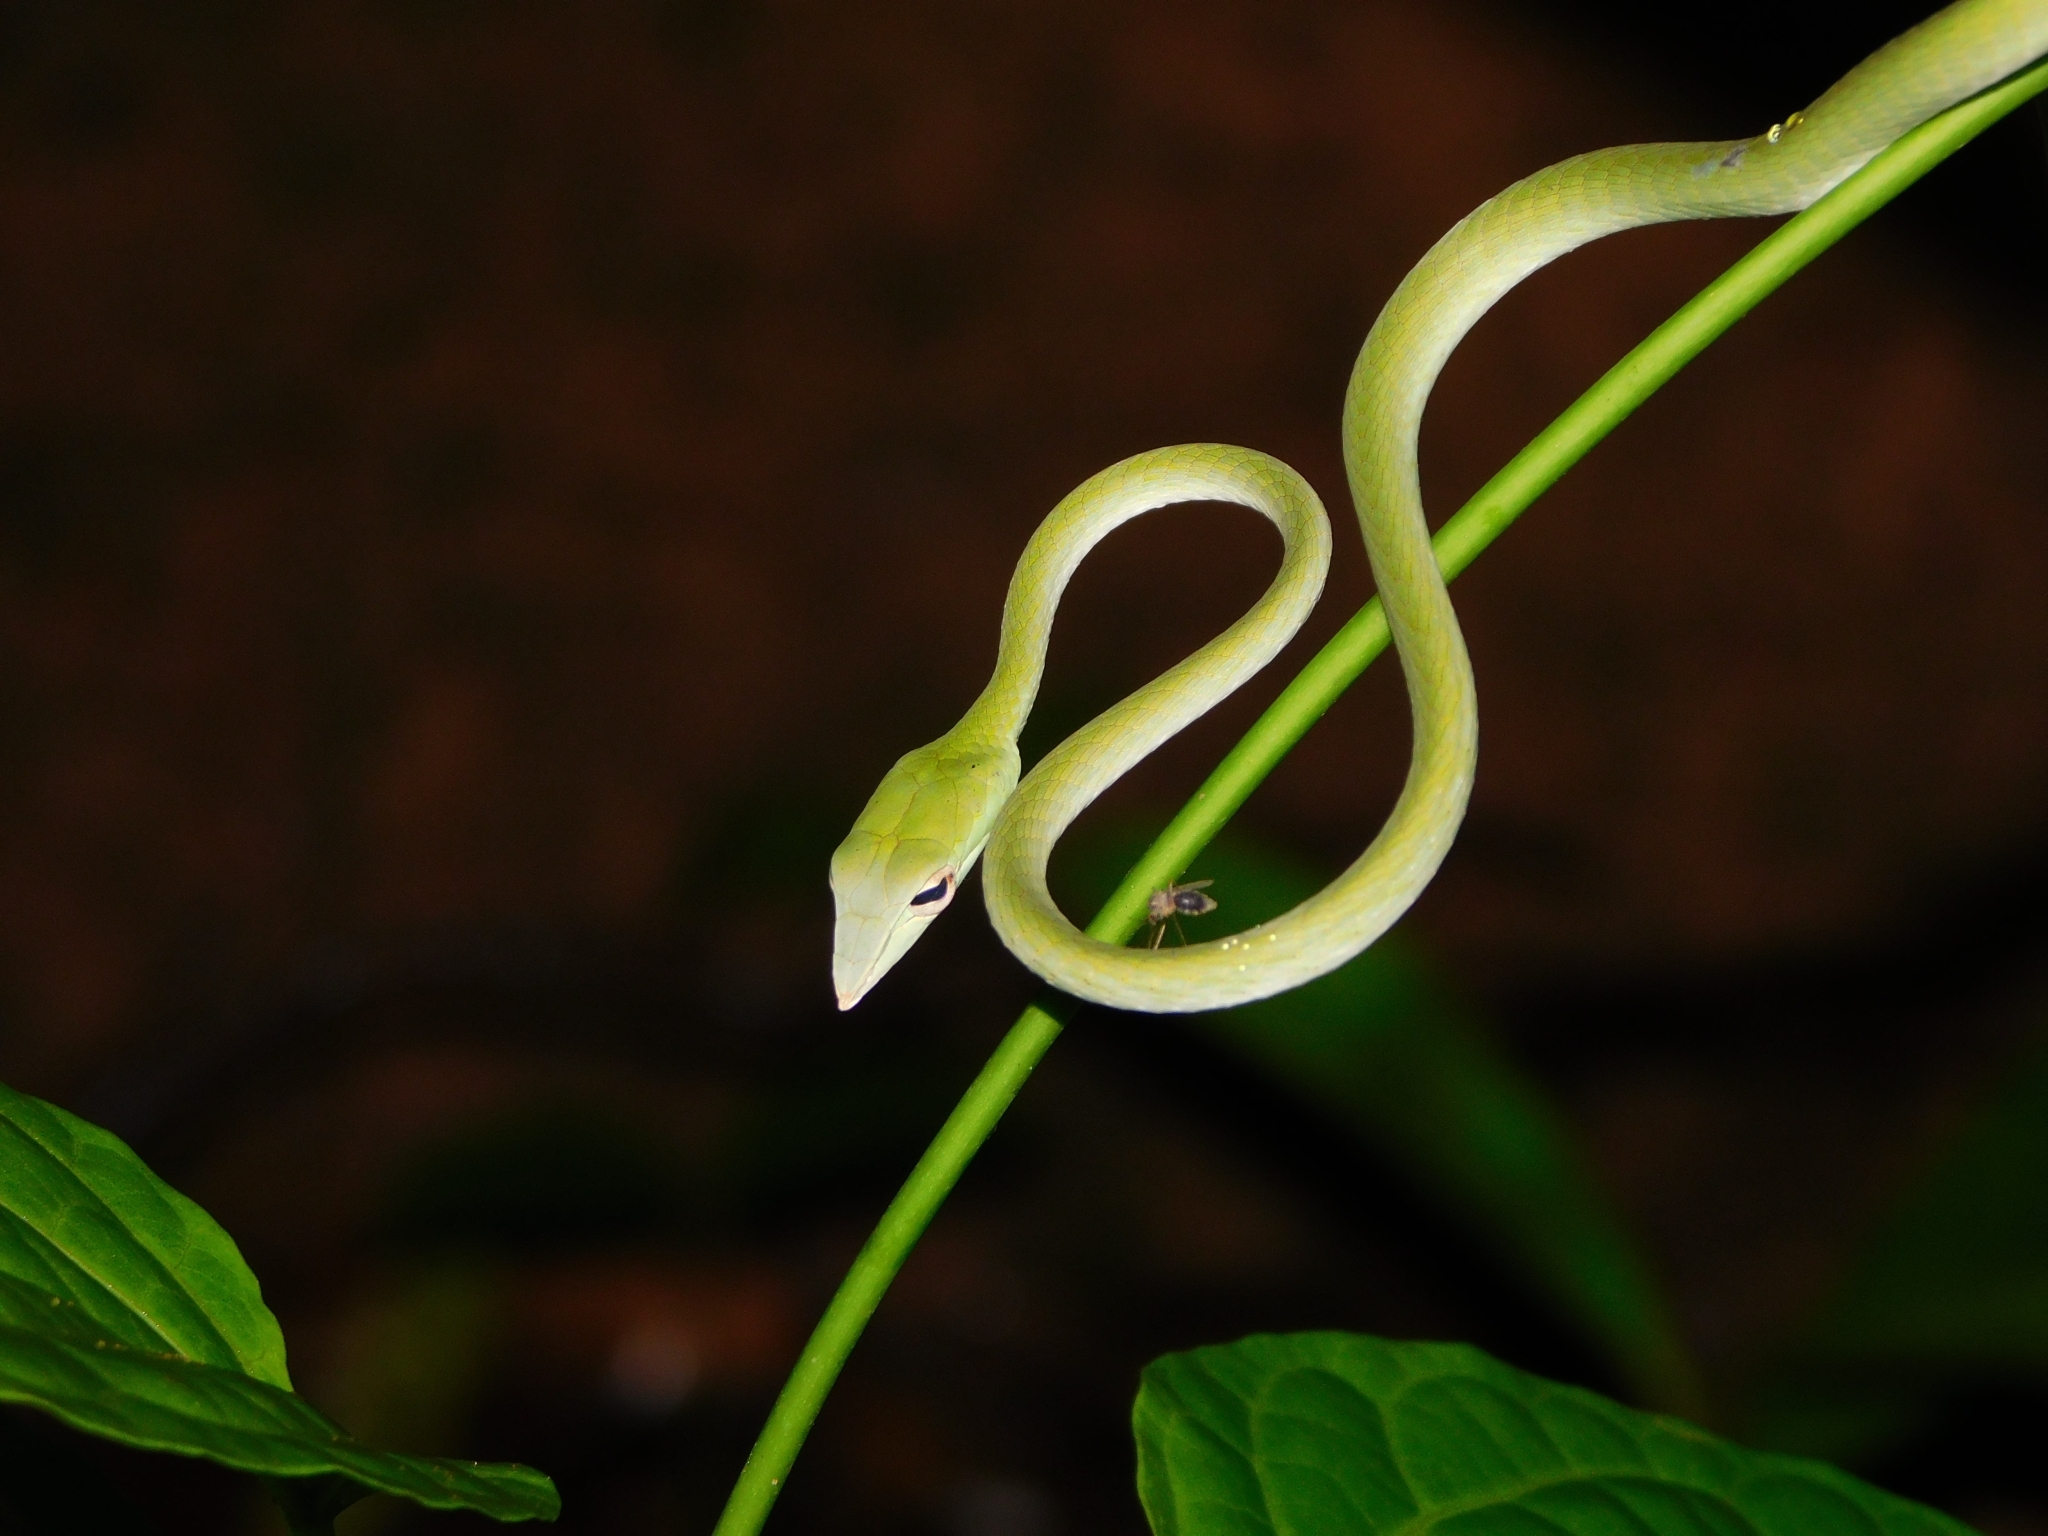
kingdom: Animalia
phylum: Chordata
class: Squamata
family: Colubridae
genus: Ahaetulla
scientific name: Ahaetulla farnsworthi
